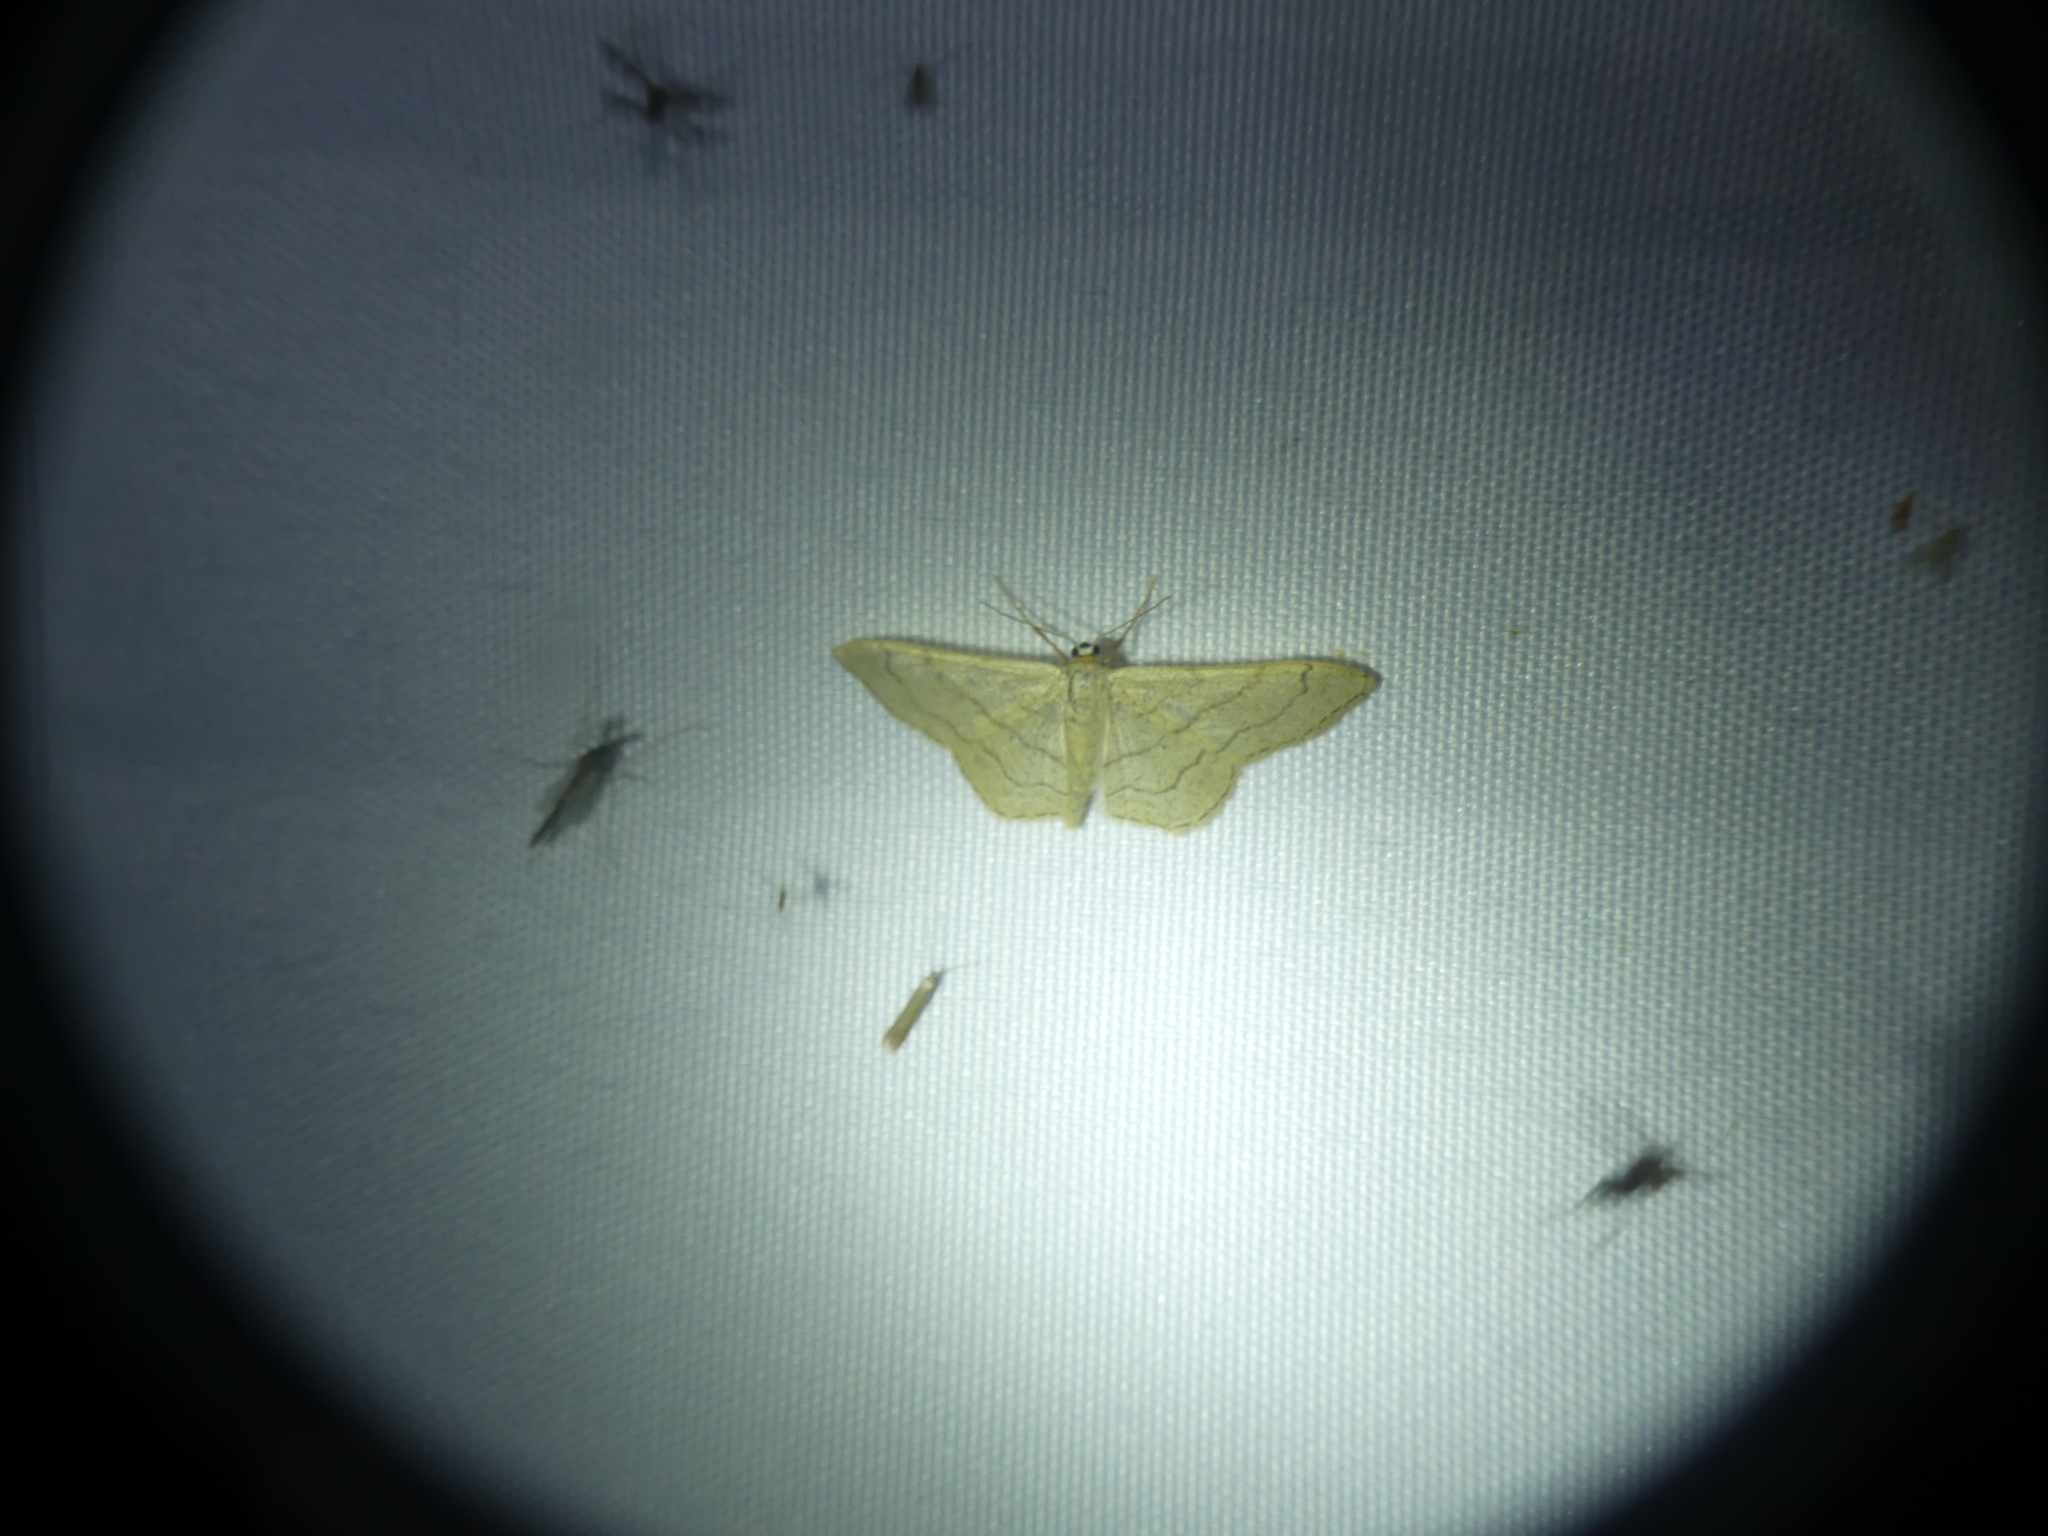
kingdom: Animalia
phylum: Arthropoda
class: Insecta
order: Lepidoptera
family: Geometridae
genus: Idaea
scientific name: Idaea aversata
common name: Riband wave
